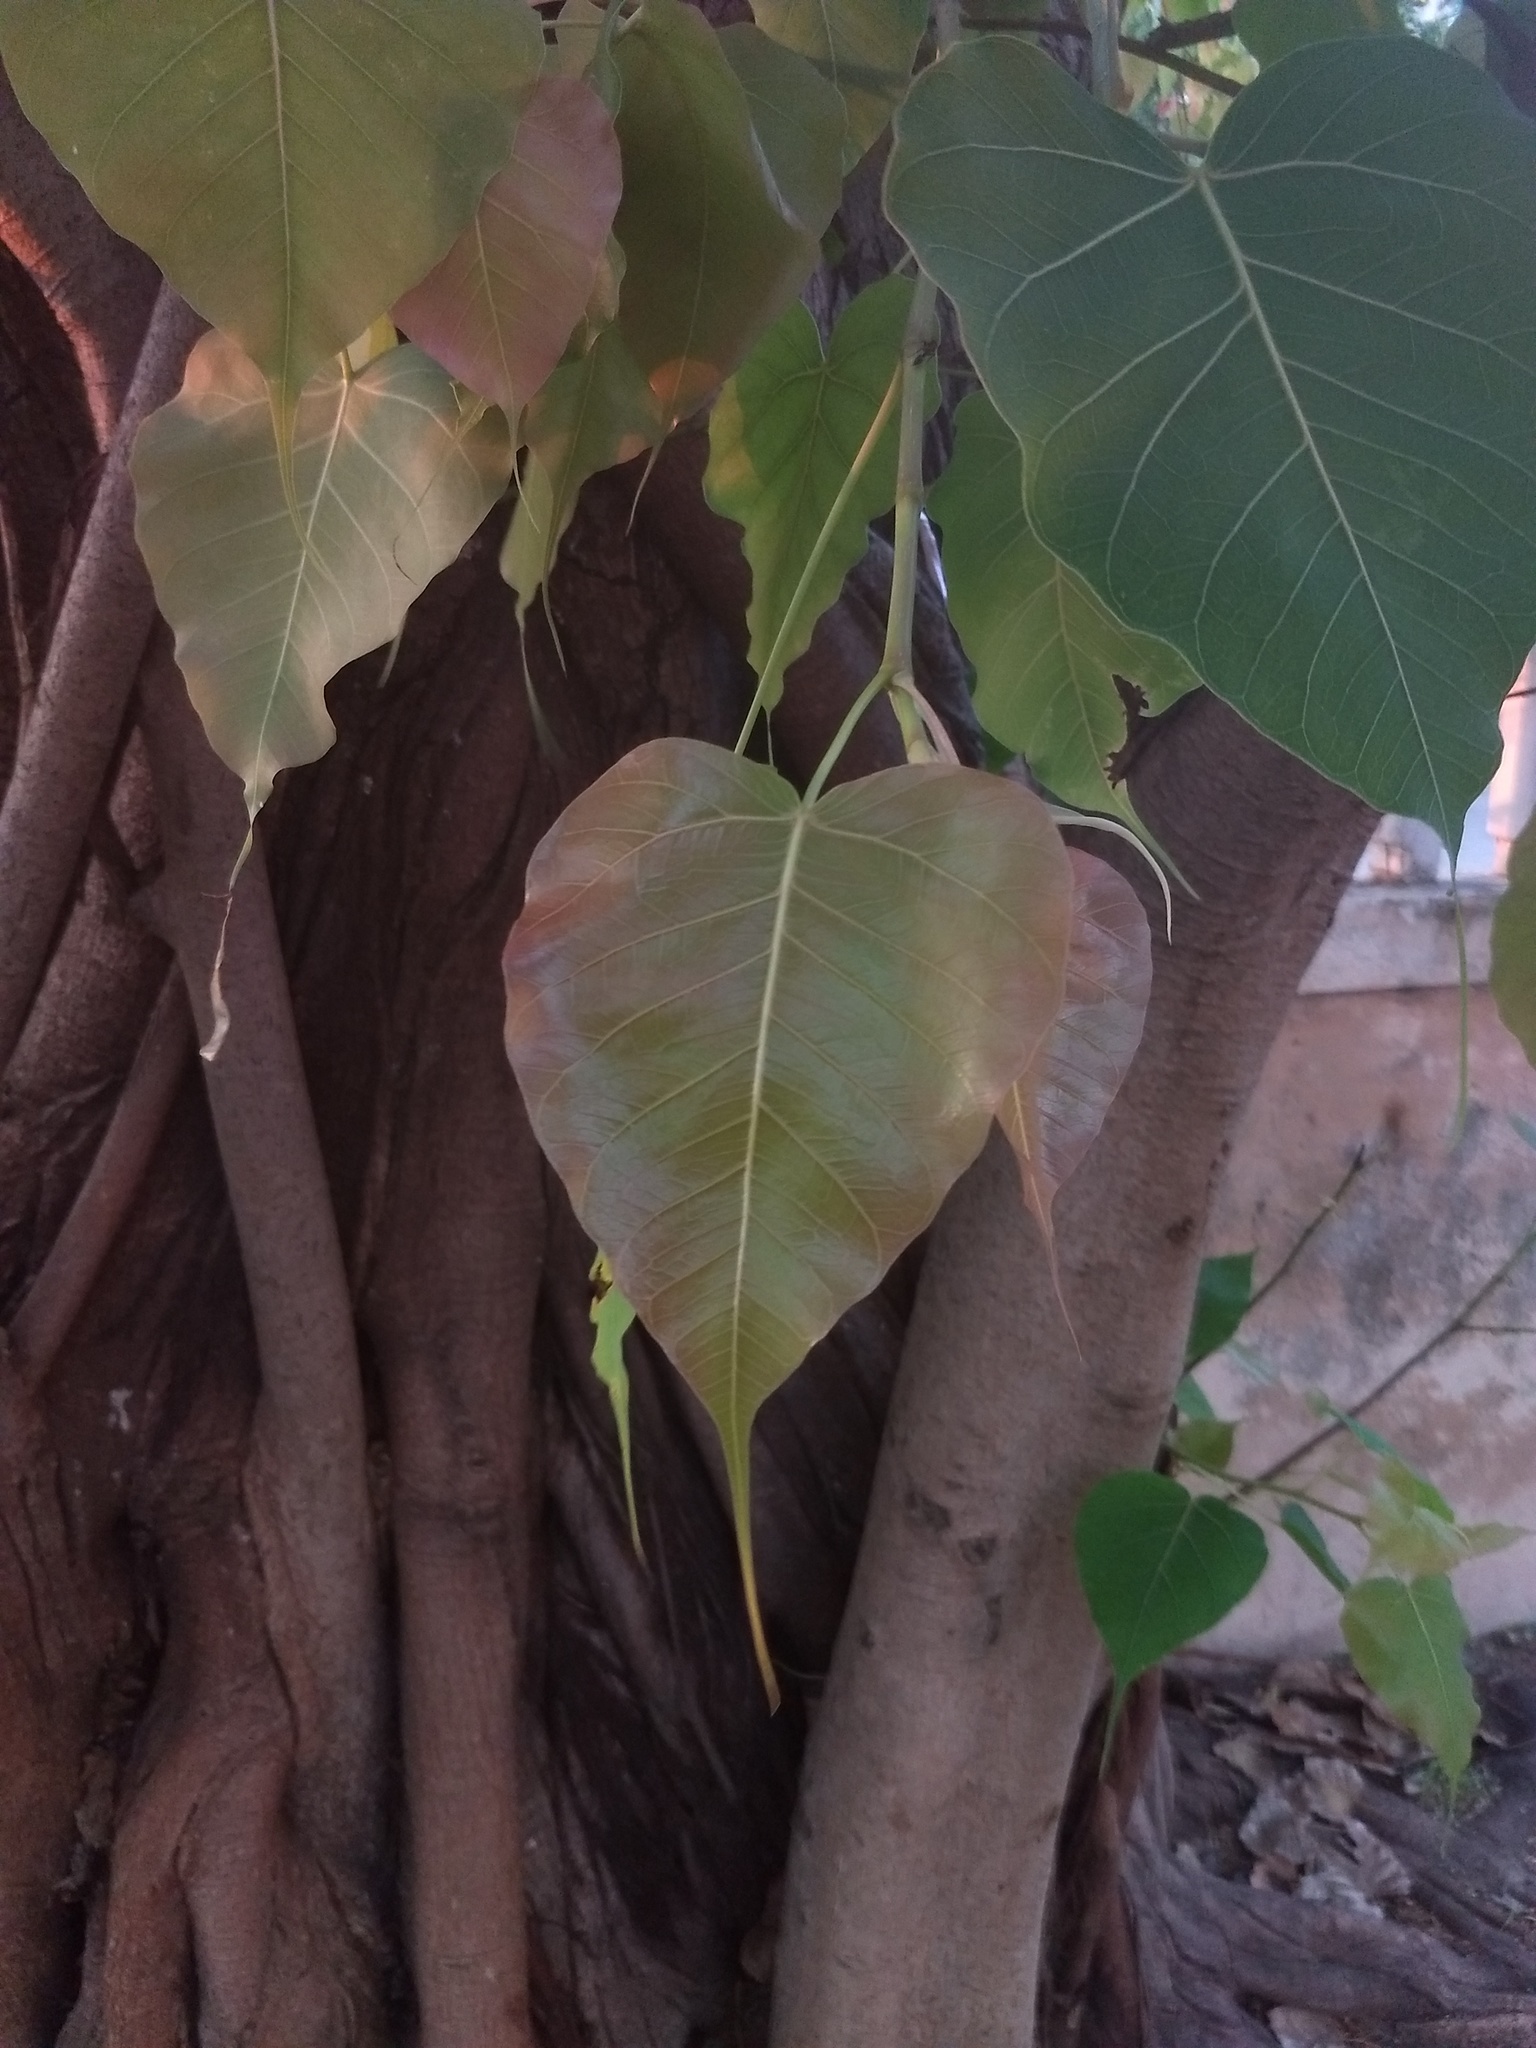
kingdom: Plantae
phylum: Tracheophyta
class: Magnoliopsida
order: Rosales
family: Moraceae
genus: Ficus
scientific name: Ficus religiosa
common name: Bodhi tree
